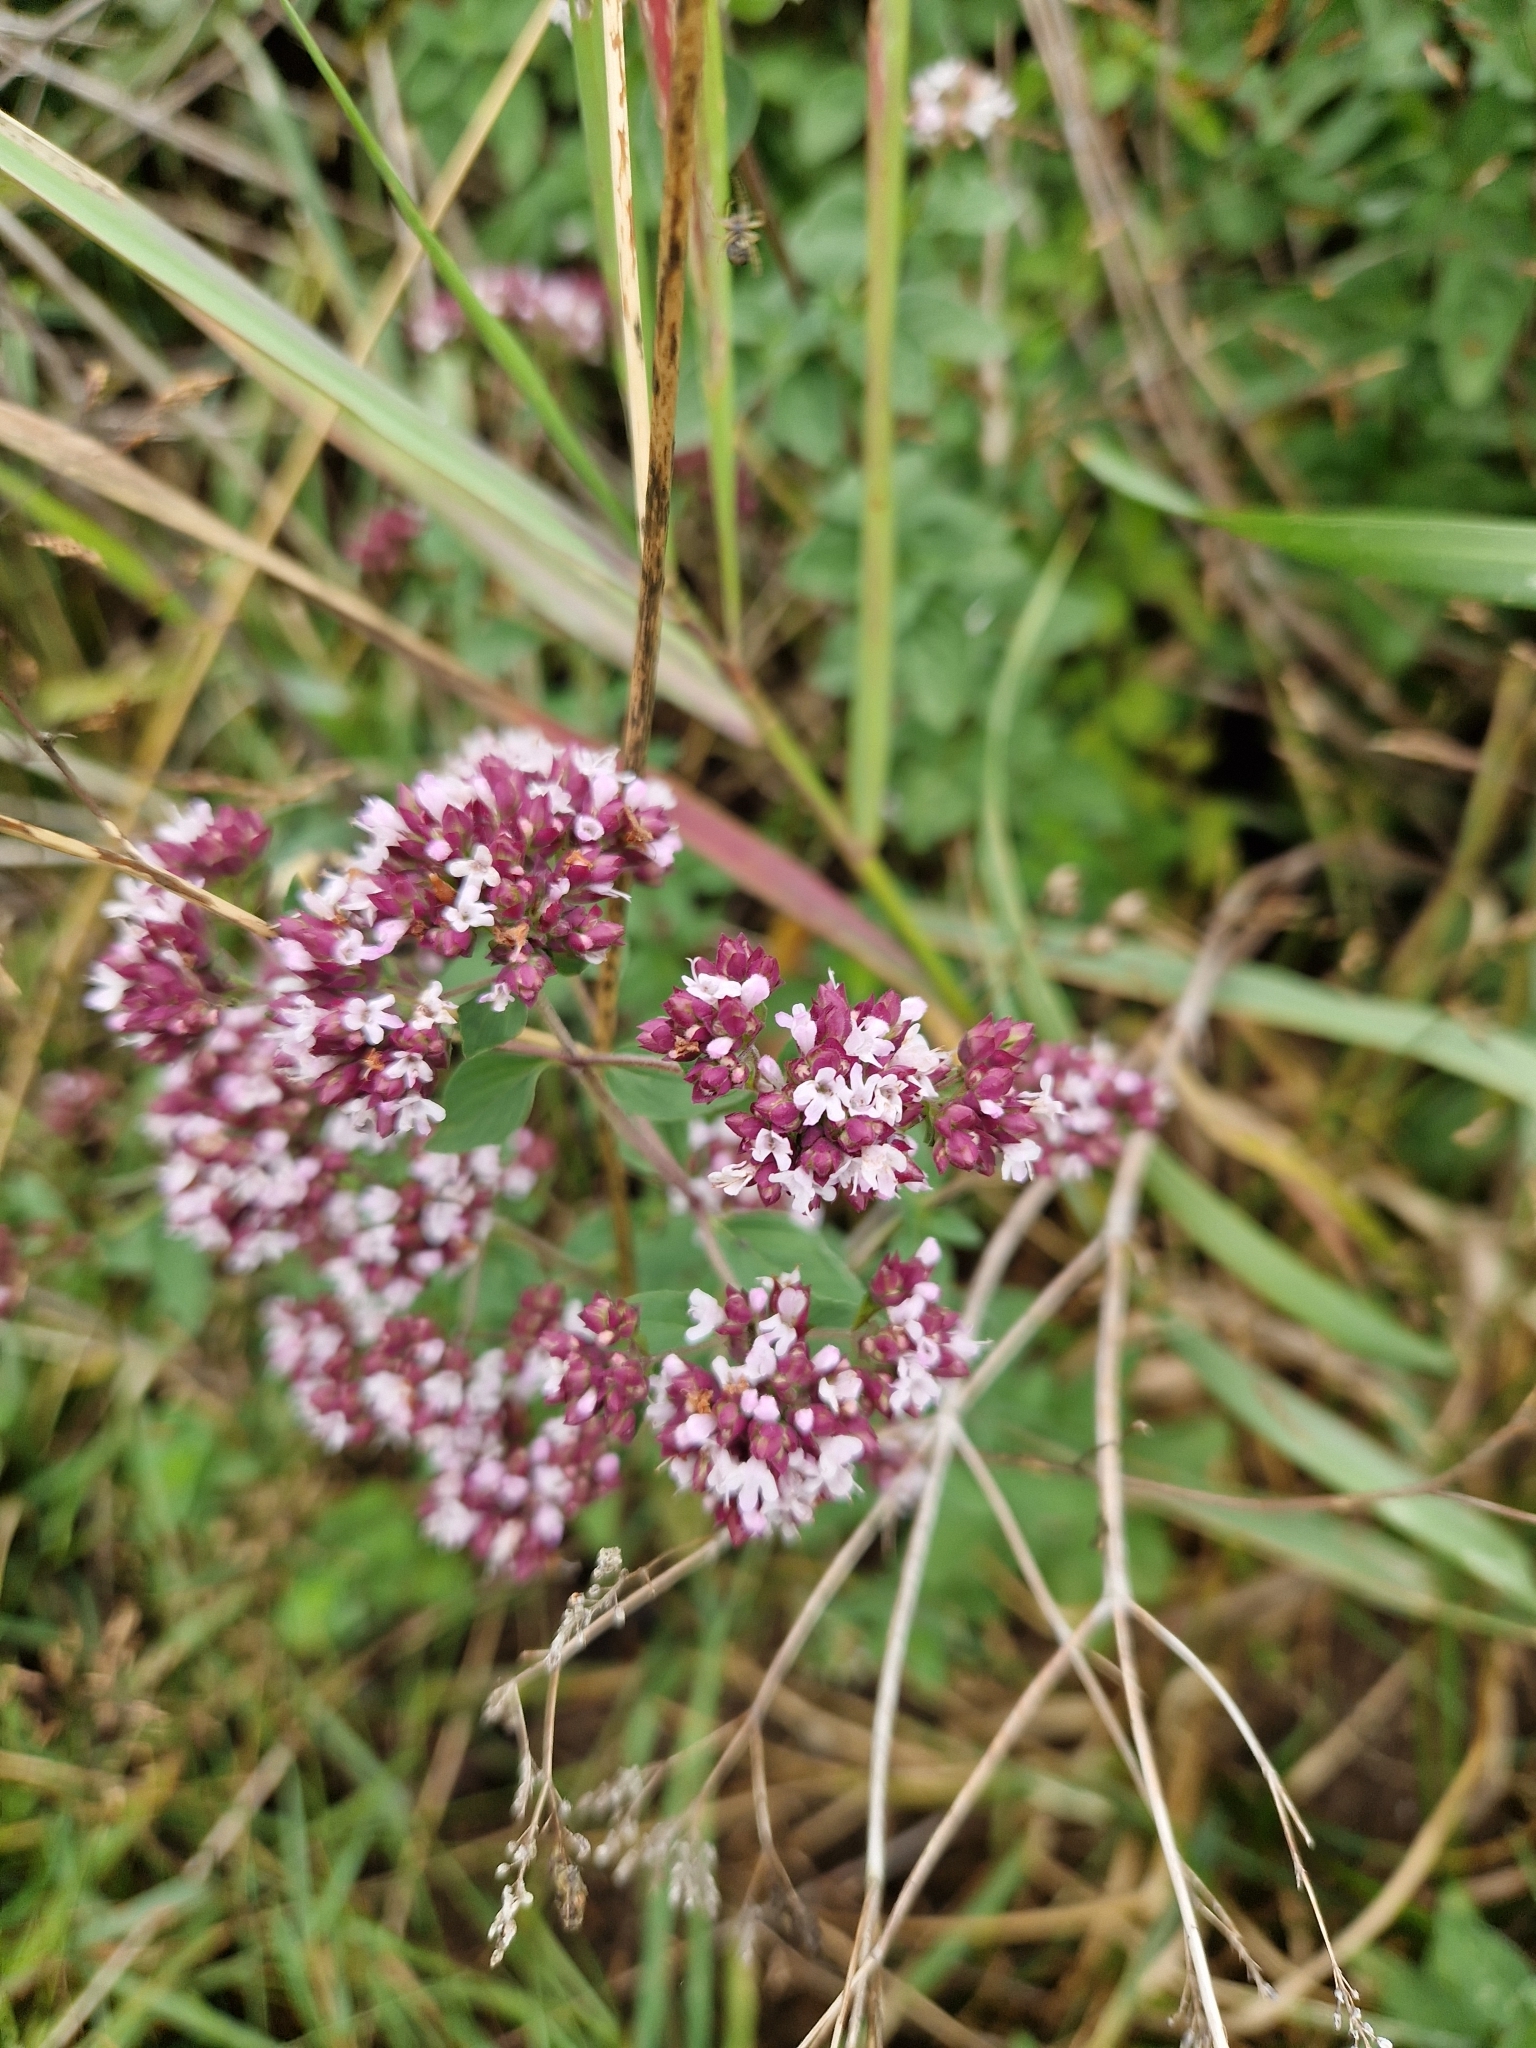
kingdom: Plantae
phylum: Tracheophyta
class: Magnoliopsida
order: Lamiales
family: Lamiaceae
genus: Origanum
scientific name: Origanum vulgare
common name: Wild marjoram
